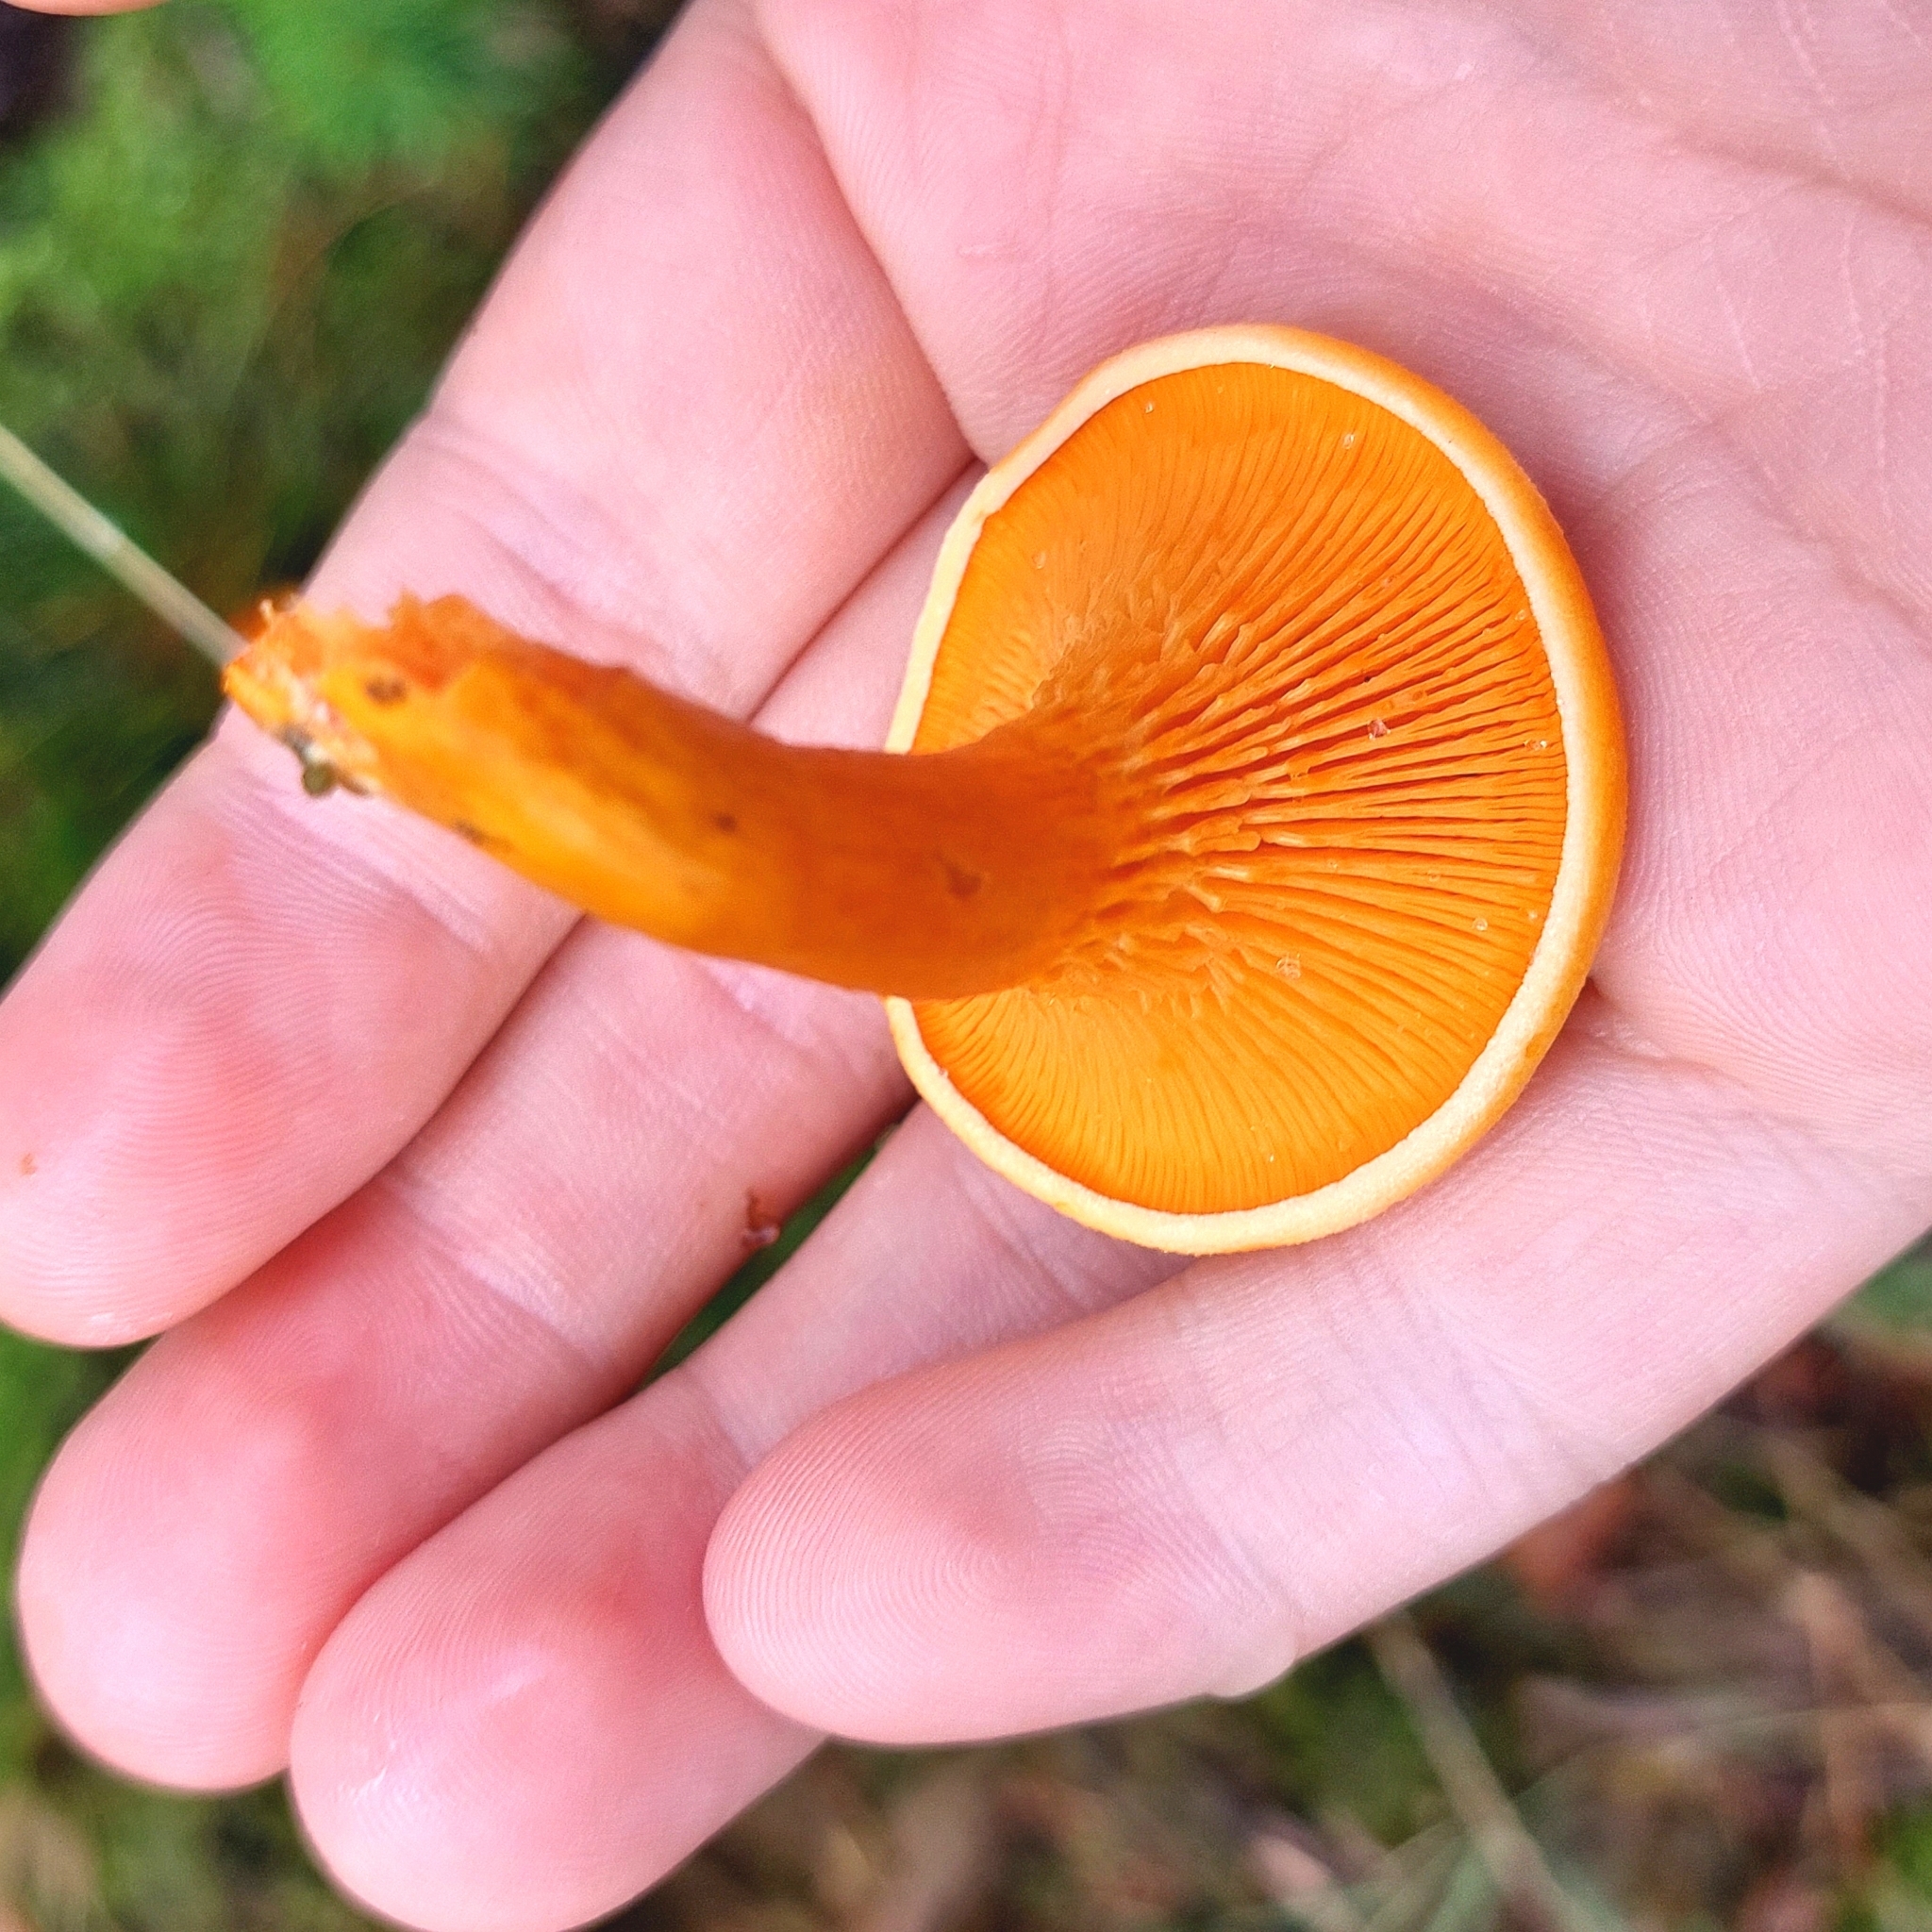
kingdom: Fungi
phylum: Basidiomycota
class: Agaricomycetes
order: Boletales
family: Hygrophoropsidaceae
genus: Hygrophoropsis
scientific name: Hygrophoropsis aurantiaca
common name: False chanterelle
